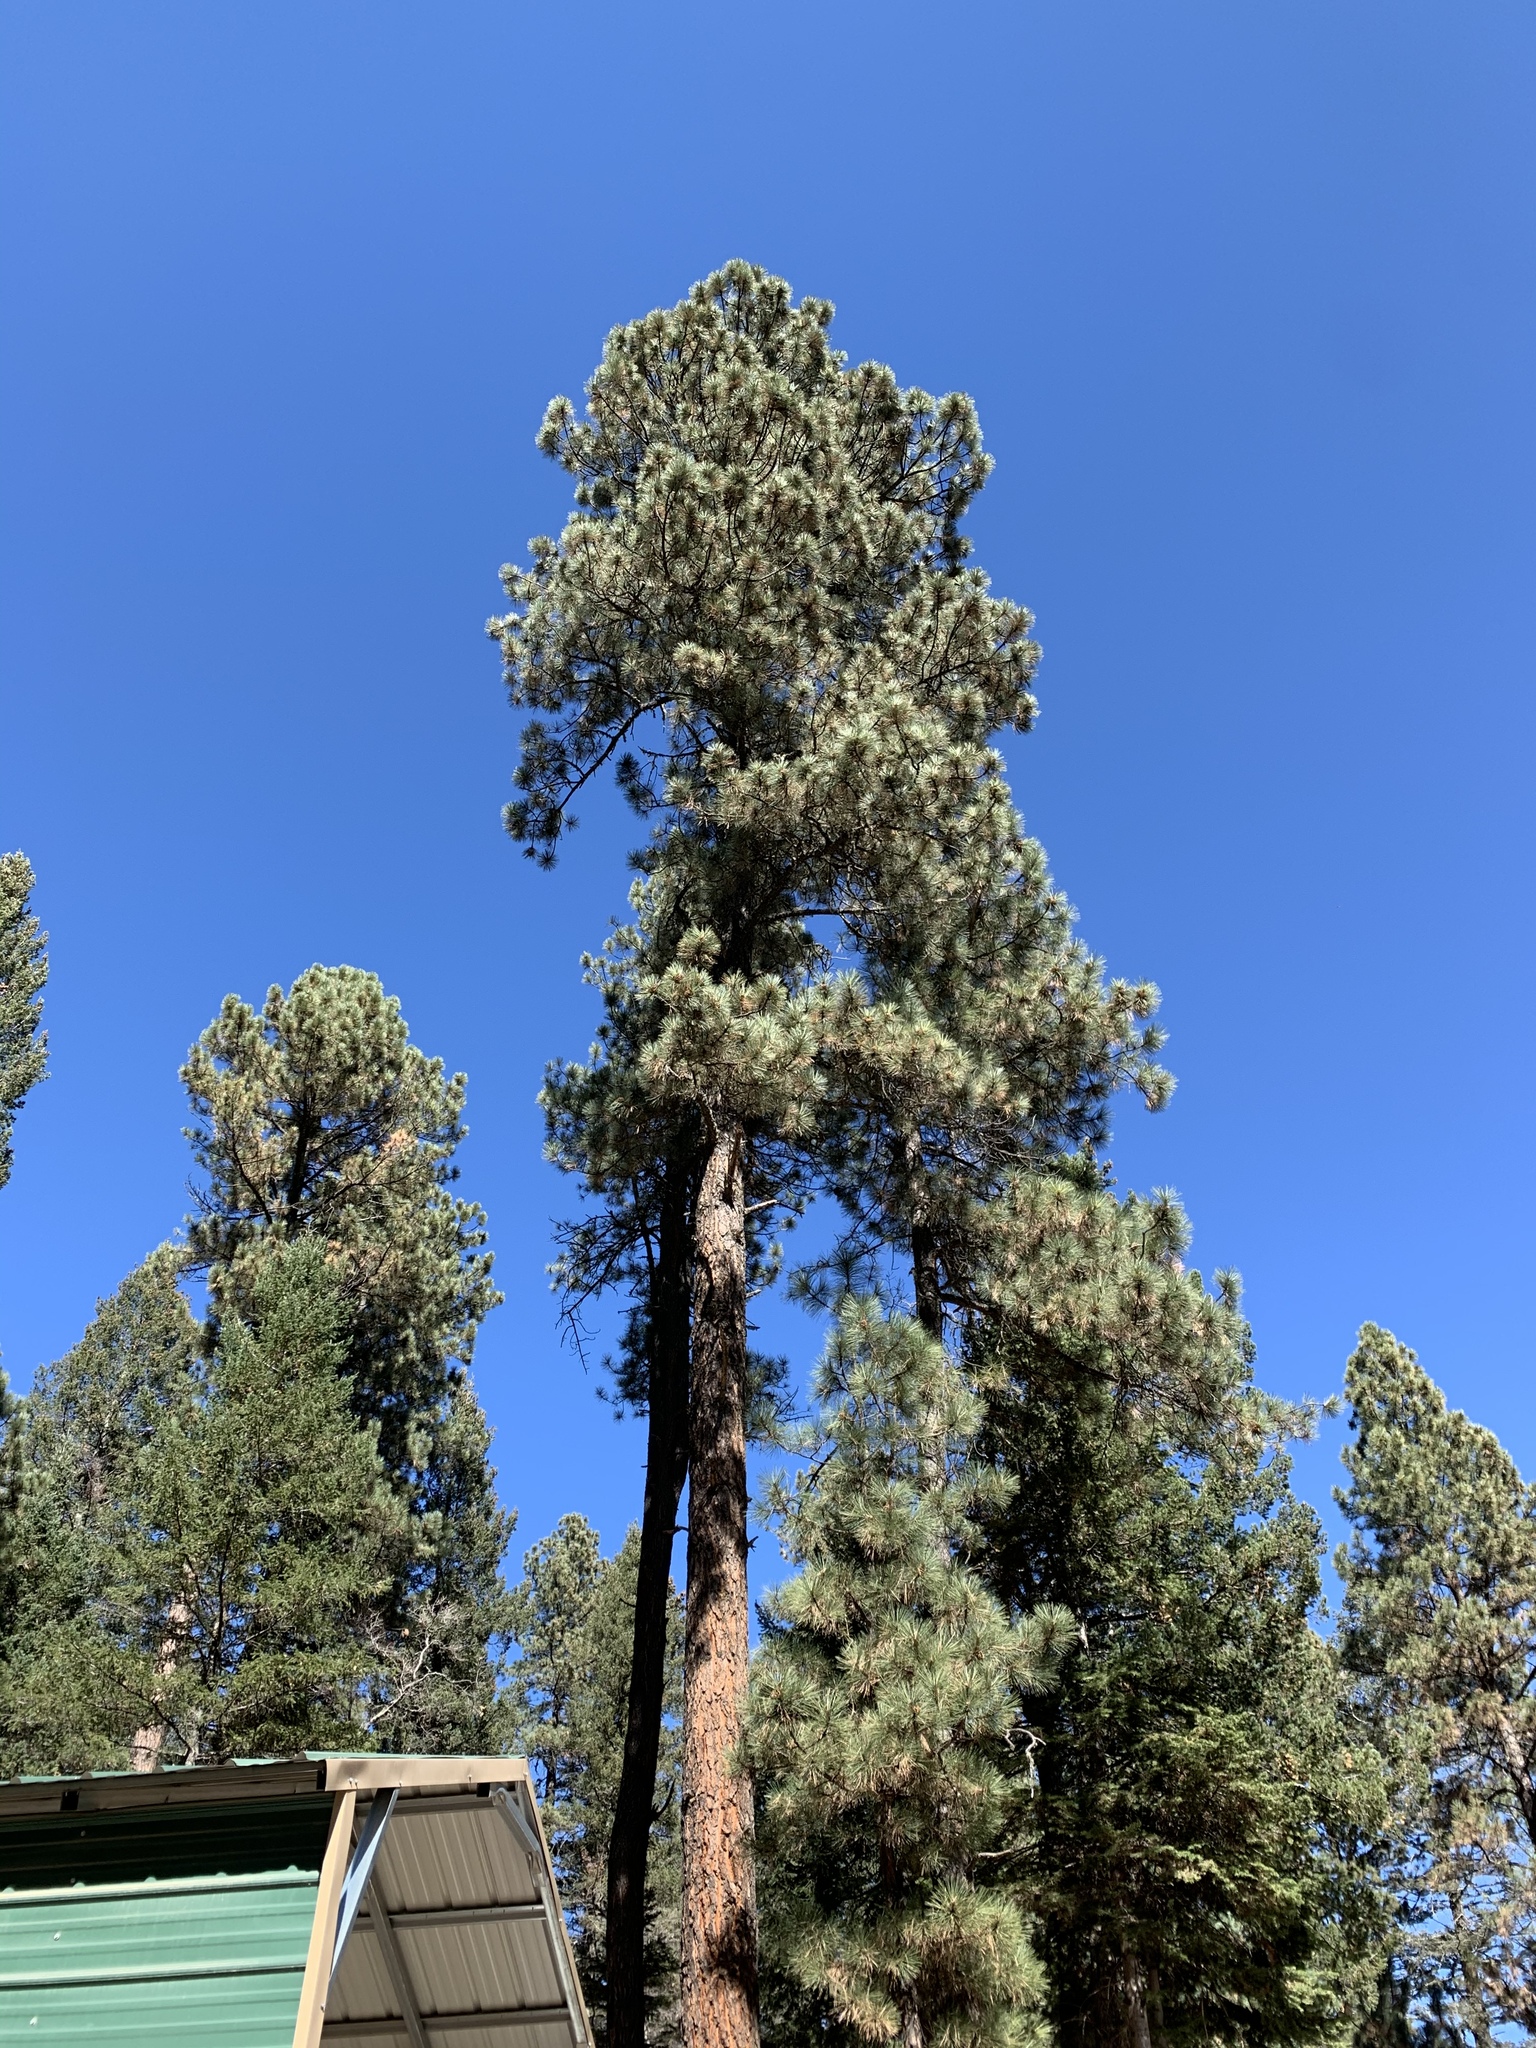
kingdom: Plantae
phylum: Tracheophyta
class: Pinopsida
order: Pinales
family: Pinaceae
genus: Pinus
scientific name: Pinus ponderosa
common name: Western yellow-pine
